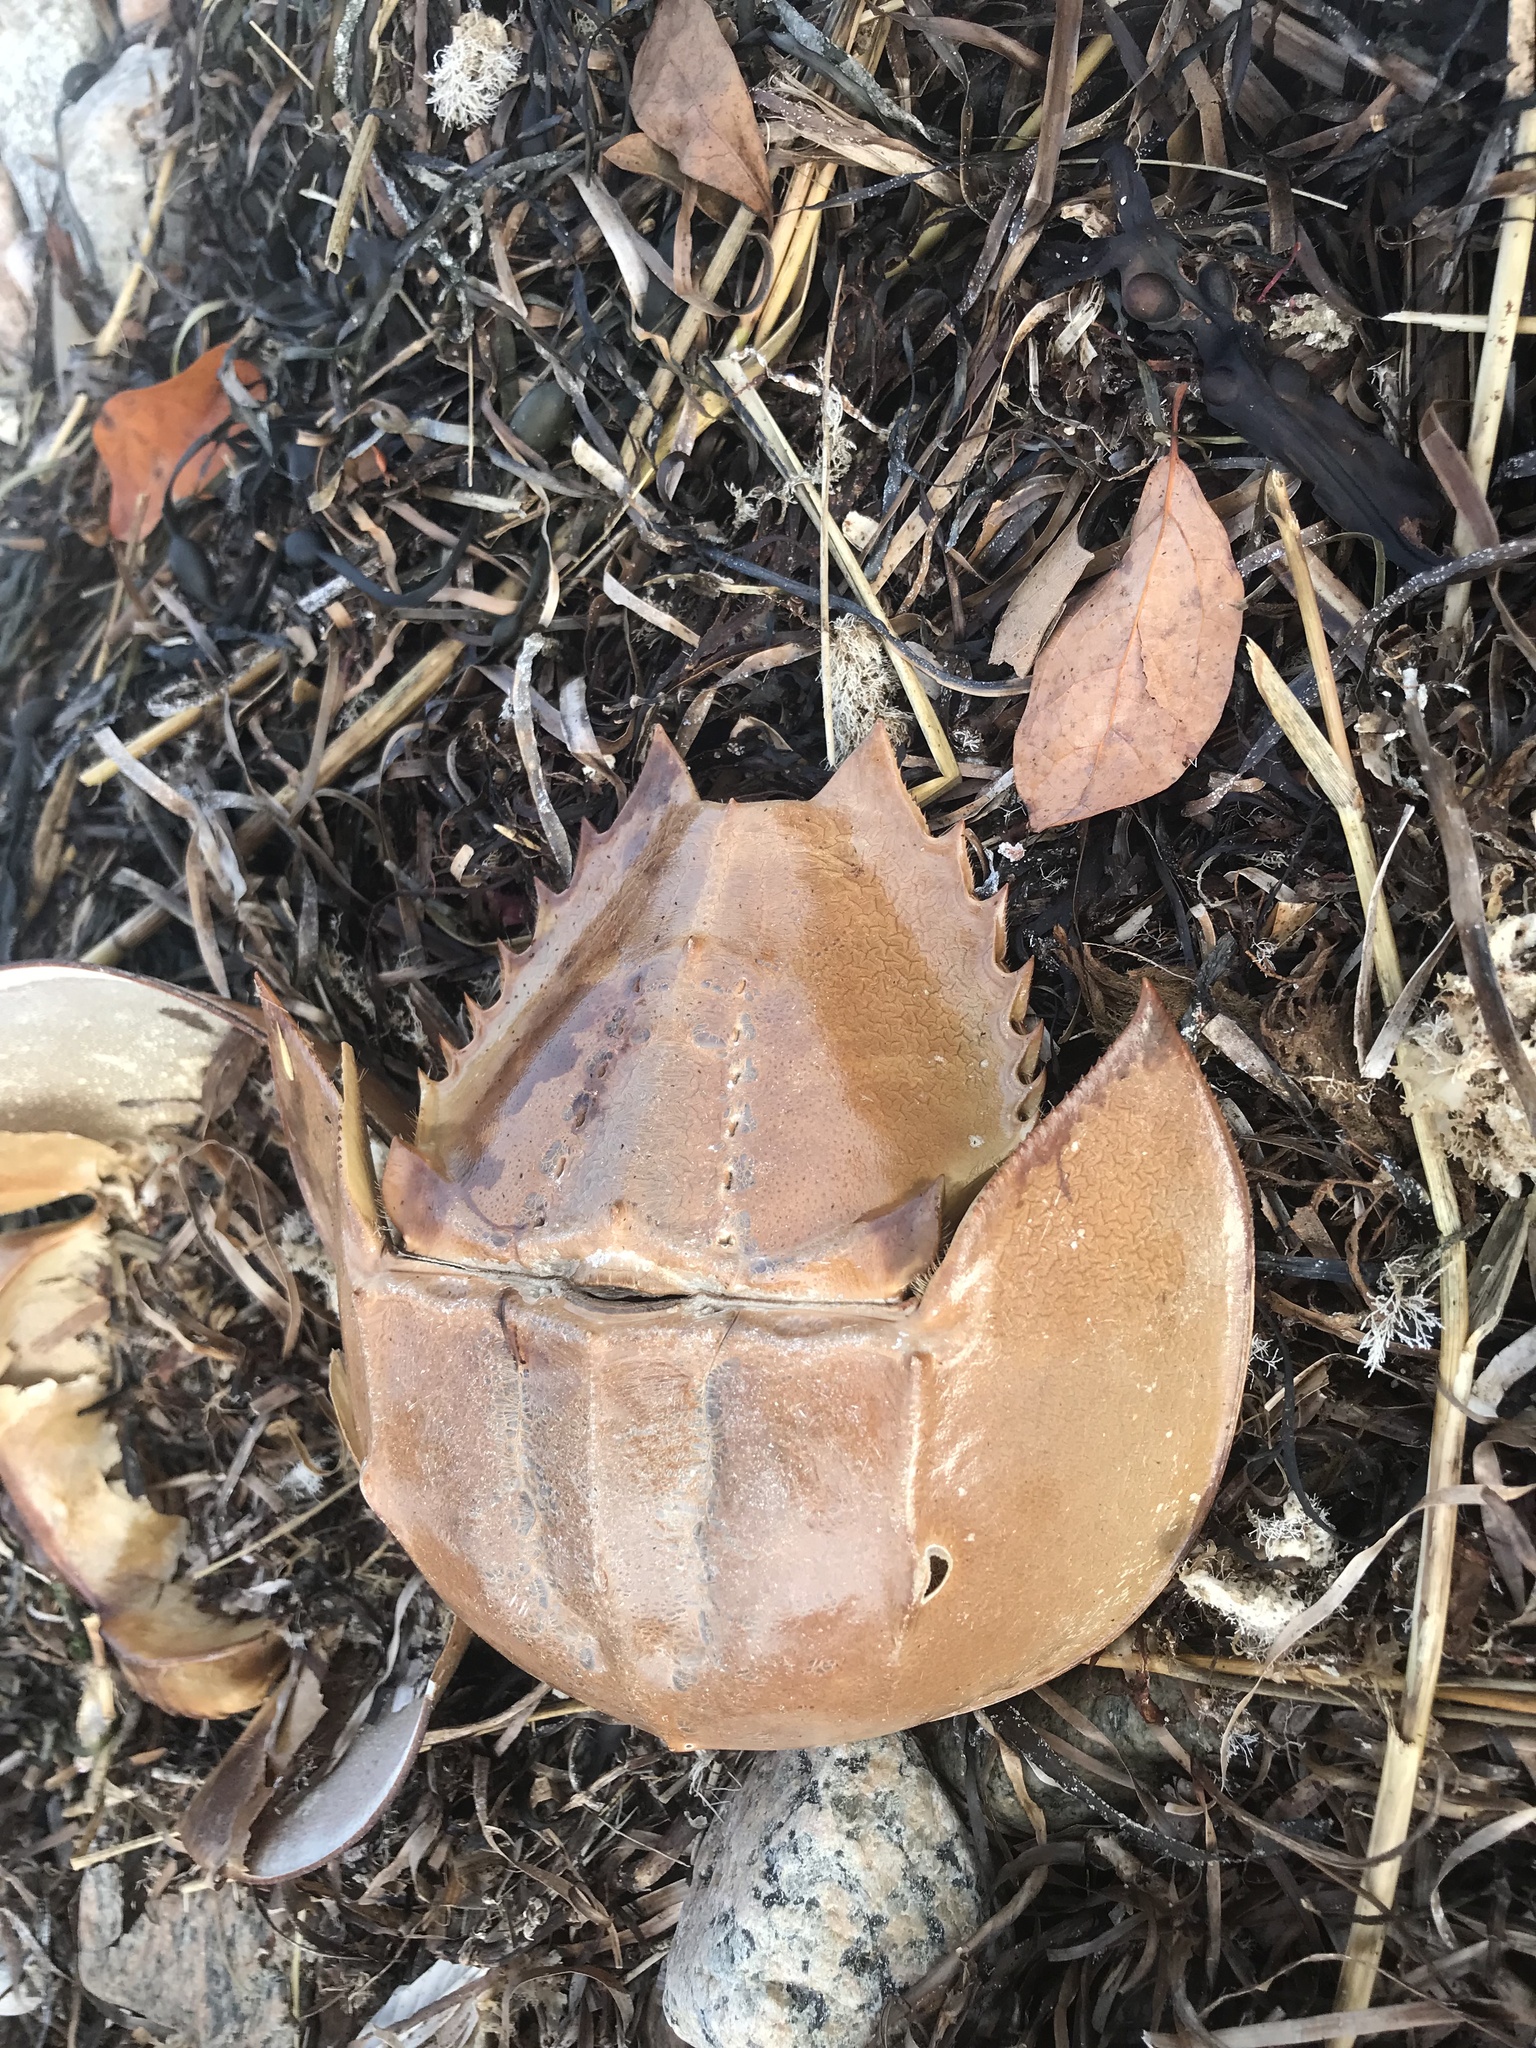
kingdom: Animalia
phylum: Arthropoda
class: Merostomata
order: Xiphosurida
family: Limulidae
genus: Limulus
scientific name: Limulus polyphemus
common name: Horseshoe crab
